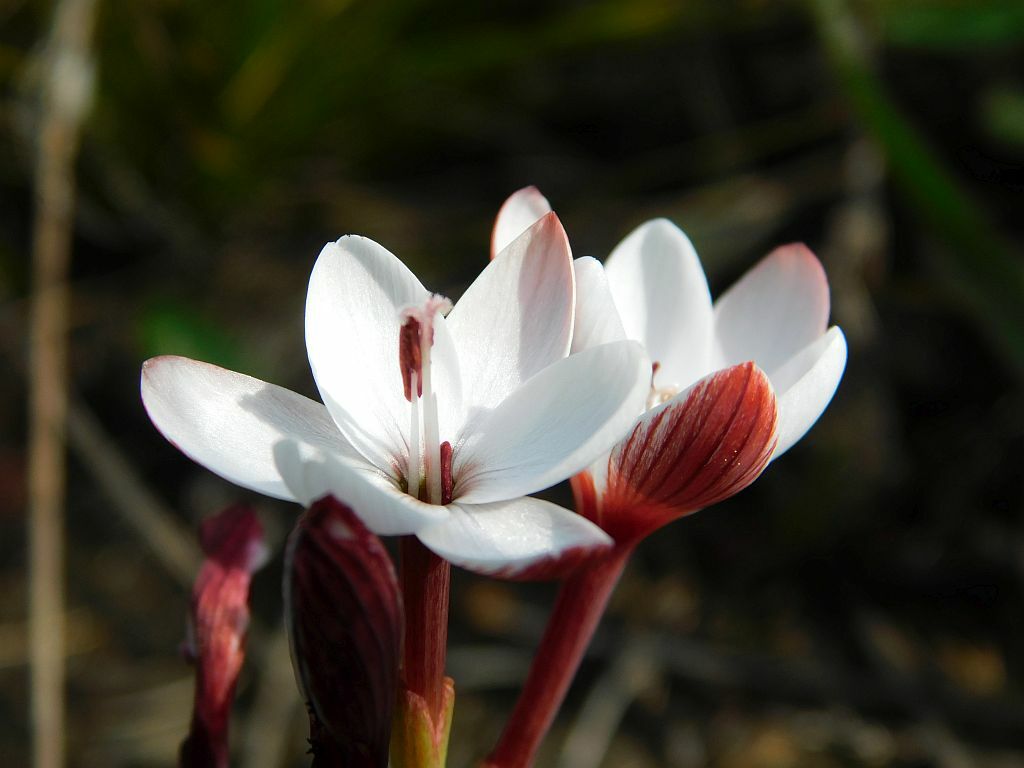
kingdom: Plantae
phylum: Tracheophyta
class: Liliopsida
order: Asparagales
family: Iridaceae
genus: Geissorhiza
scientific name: Geissorhiza ovata
